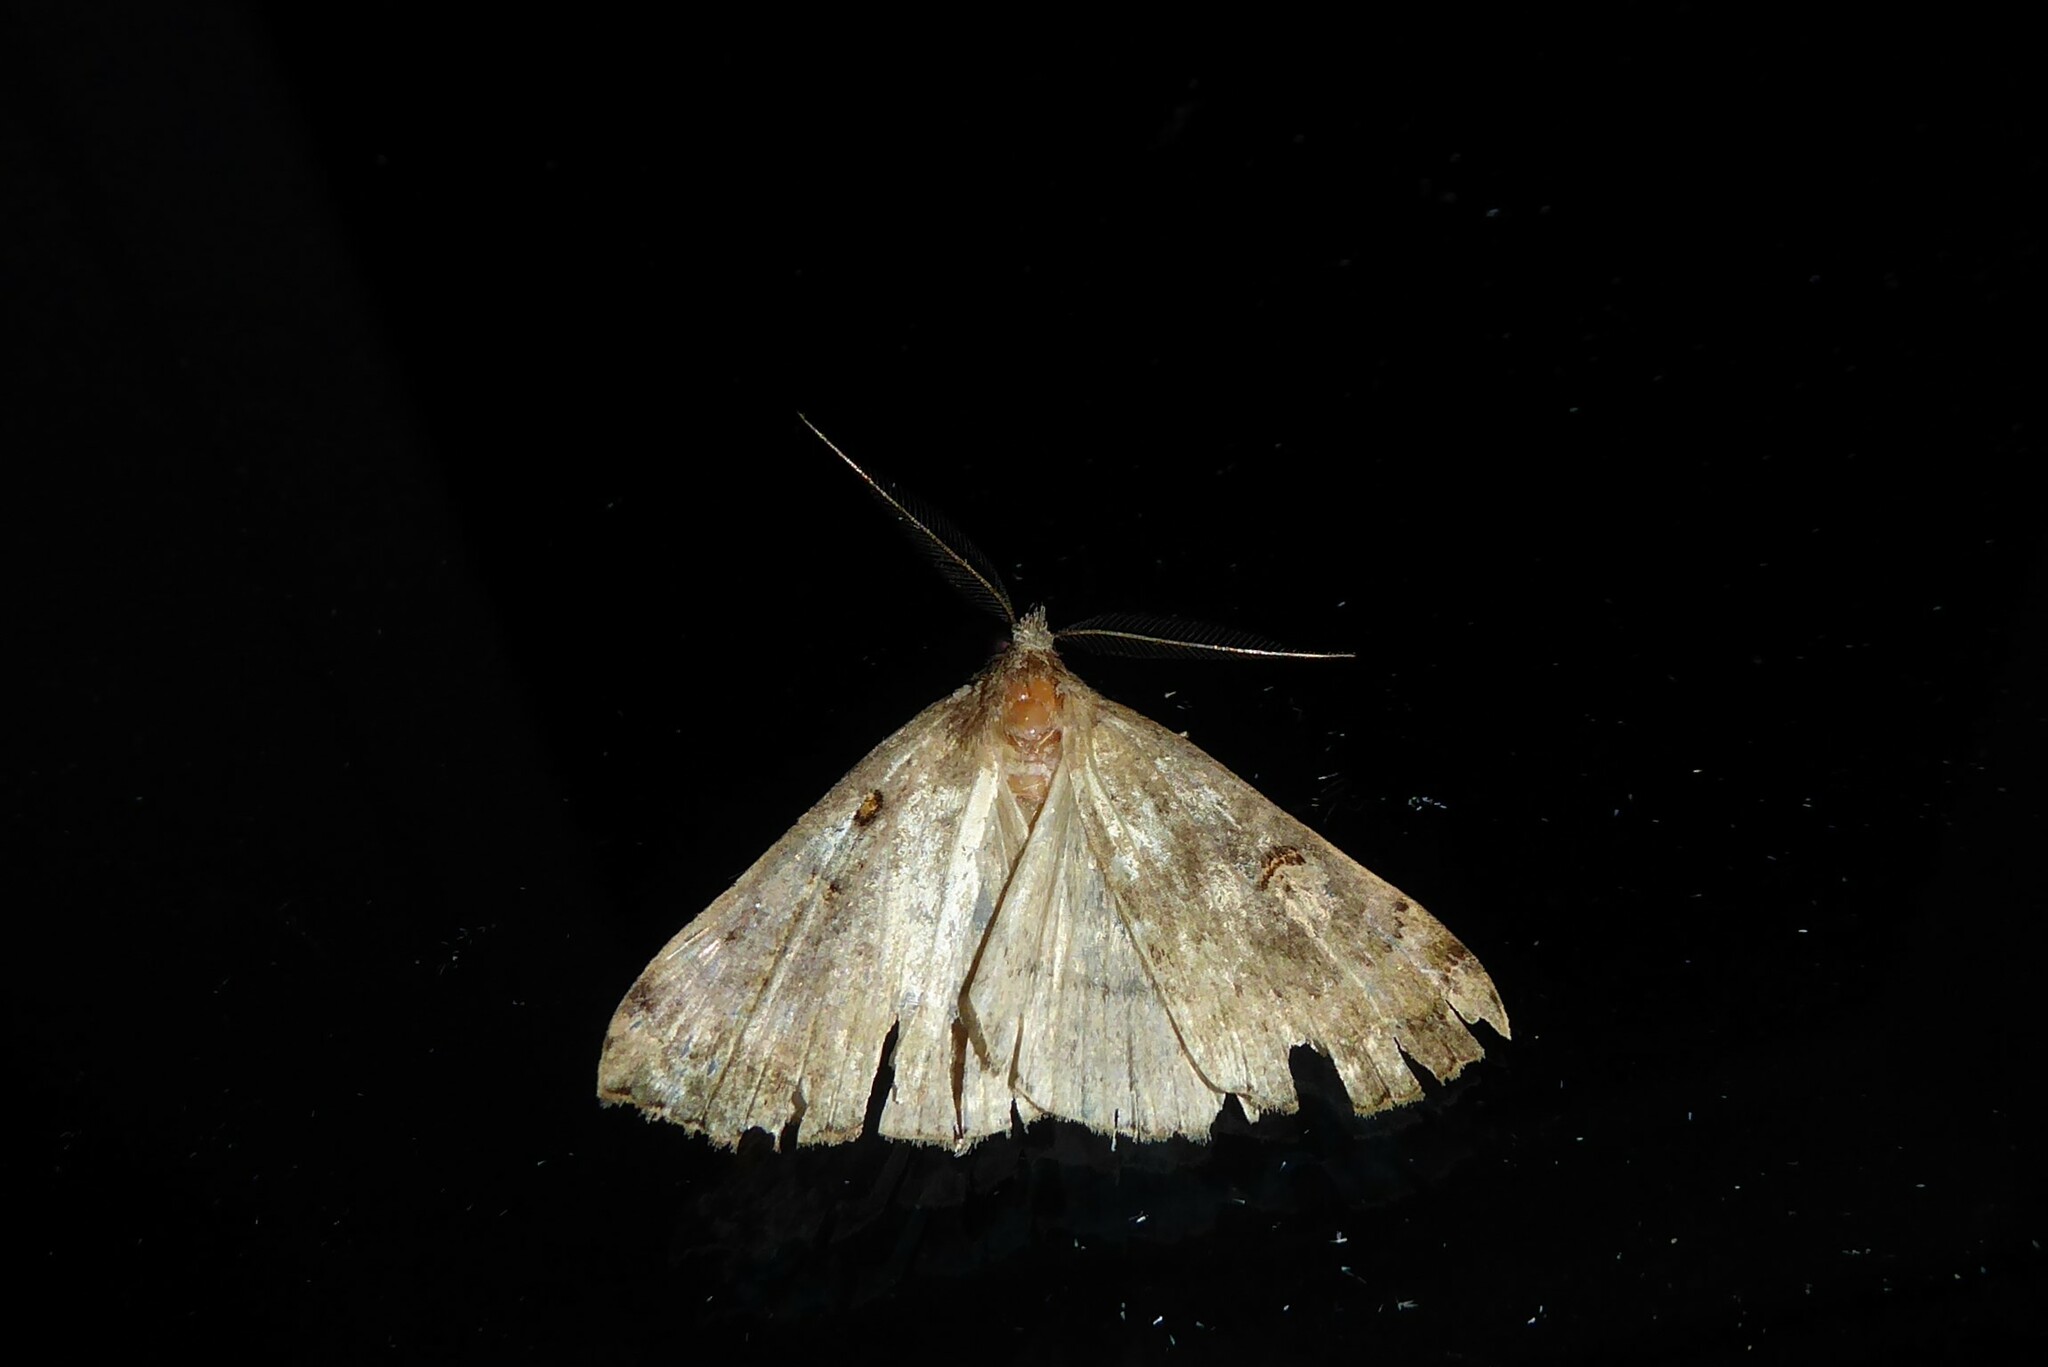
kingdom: Animalia
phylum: Arthropoda
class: Insecta
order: Lepidoptera
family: Erebidae
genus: Rhapsa
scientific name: Rhapsa scotosialis
